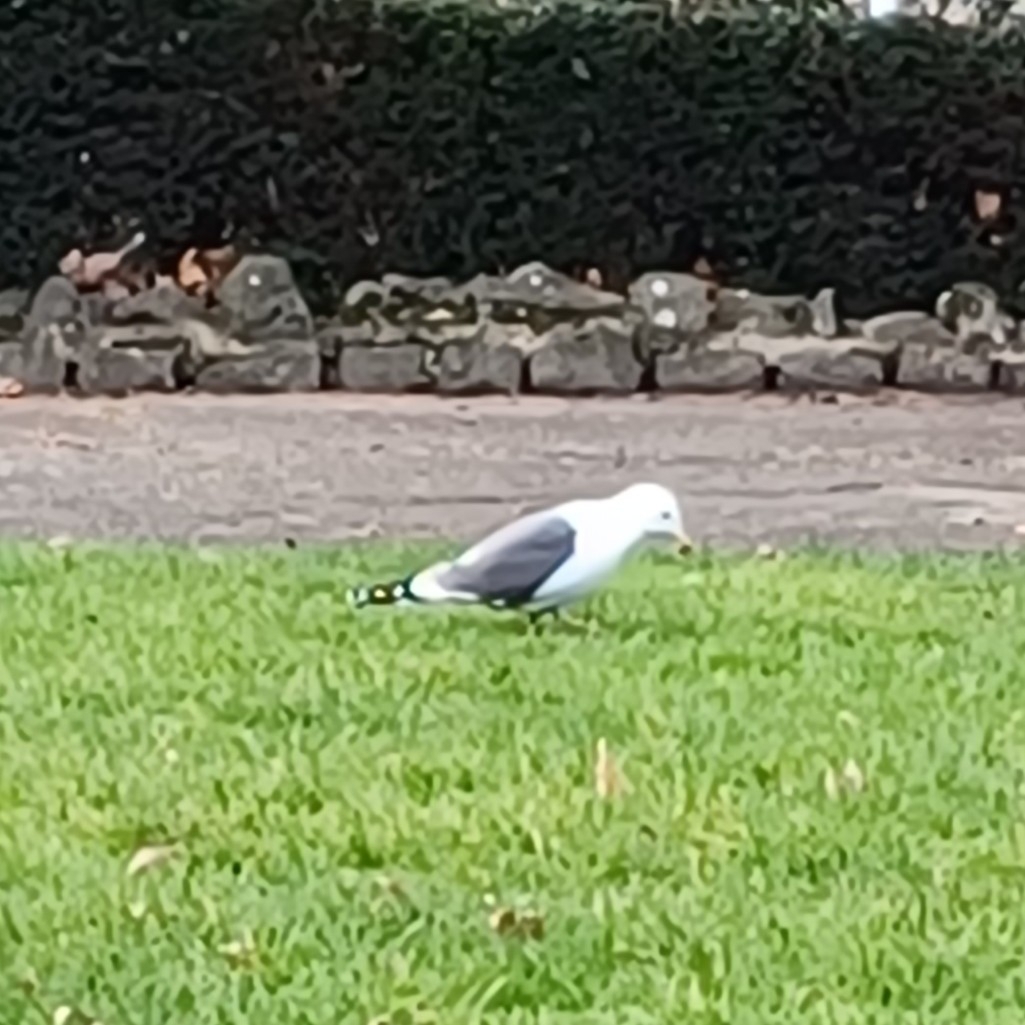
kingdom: Animalia
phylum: Chordata
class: Aves
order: Charadriiformes
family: Laridae
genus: Larus
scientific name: Larus canus
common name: Mew gull
